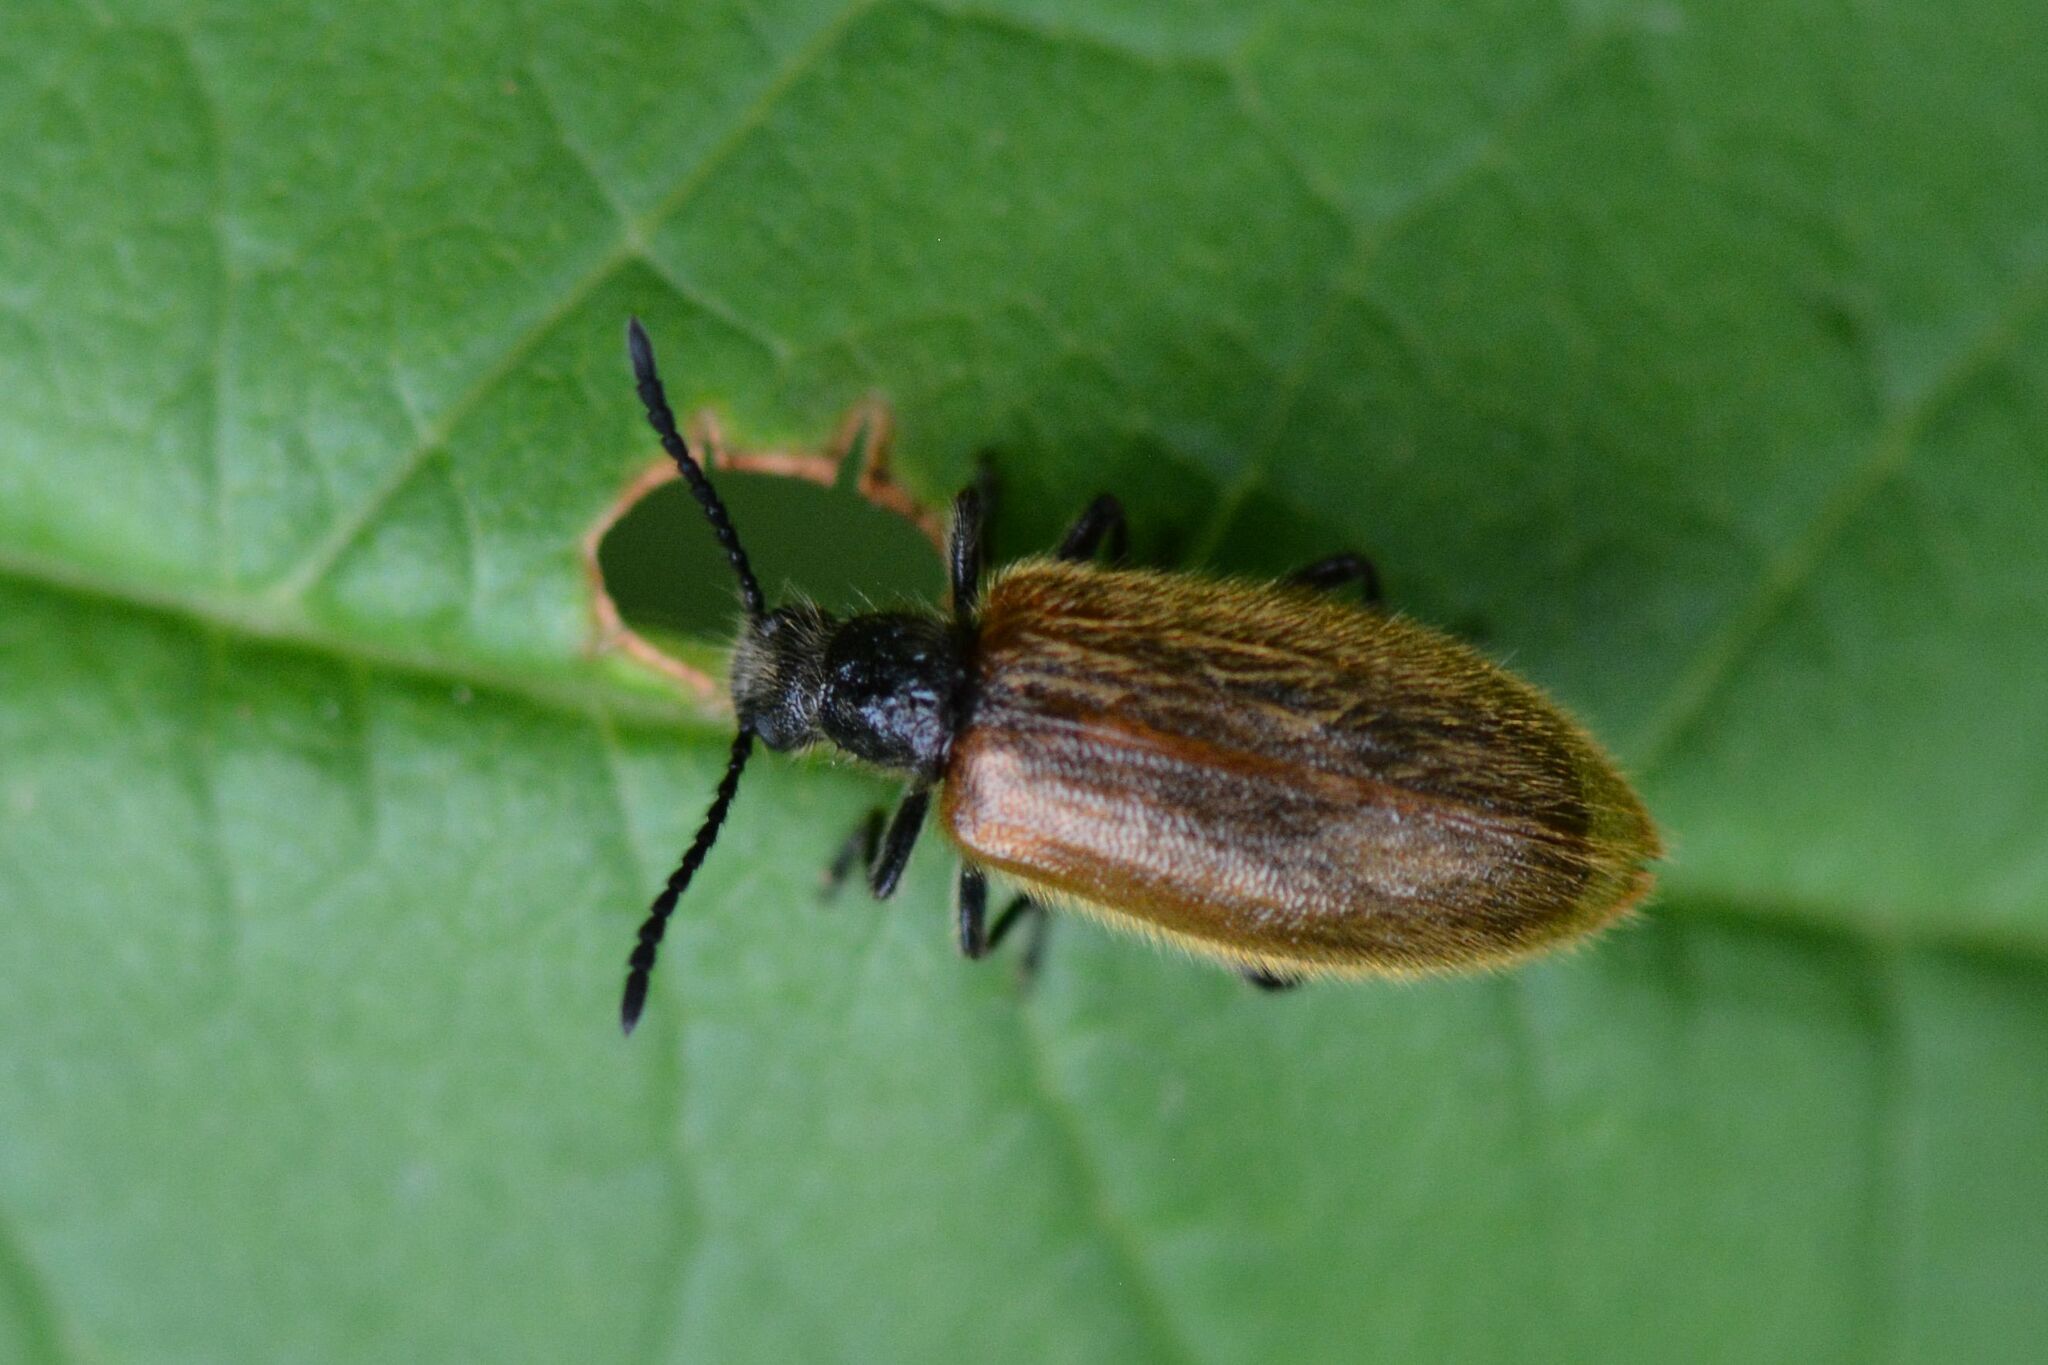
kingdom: Animalia
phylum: Arthropoda
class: Insecta
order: Coleoptera
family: Tenebrionidae
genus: Lagria
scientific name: Lagria atripes
